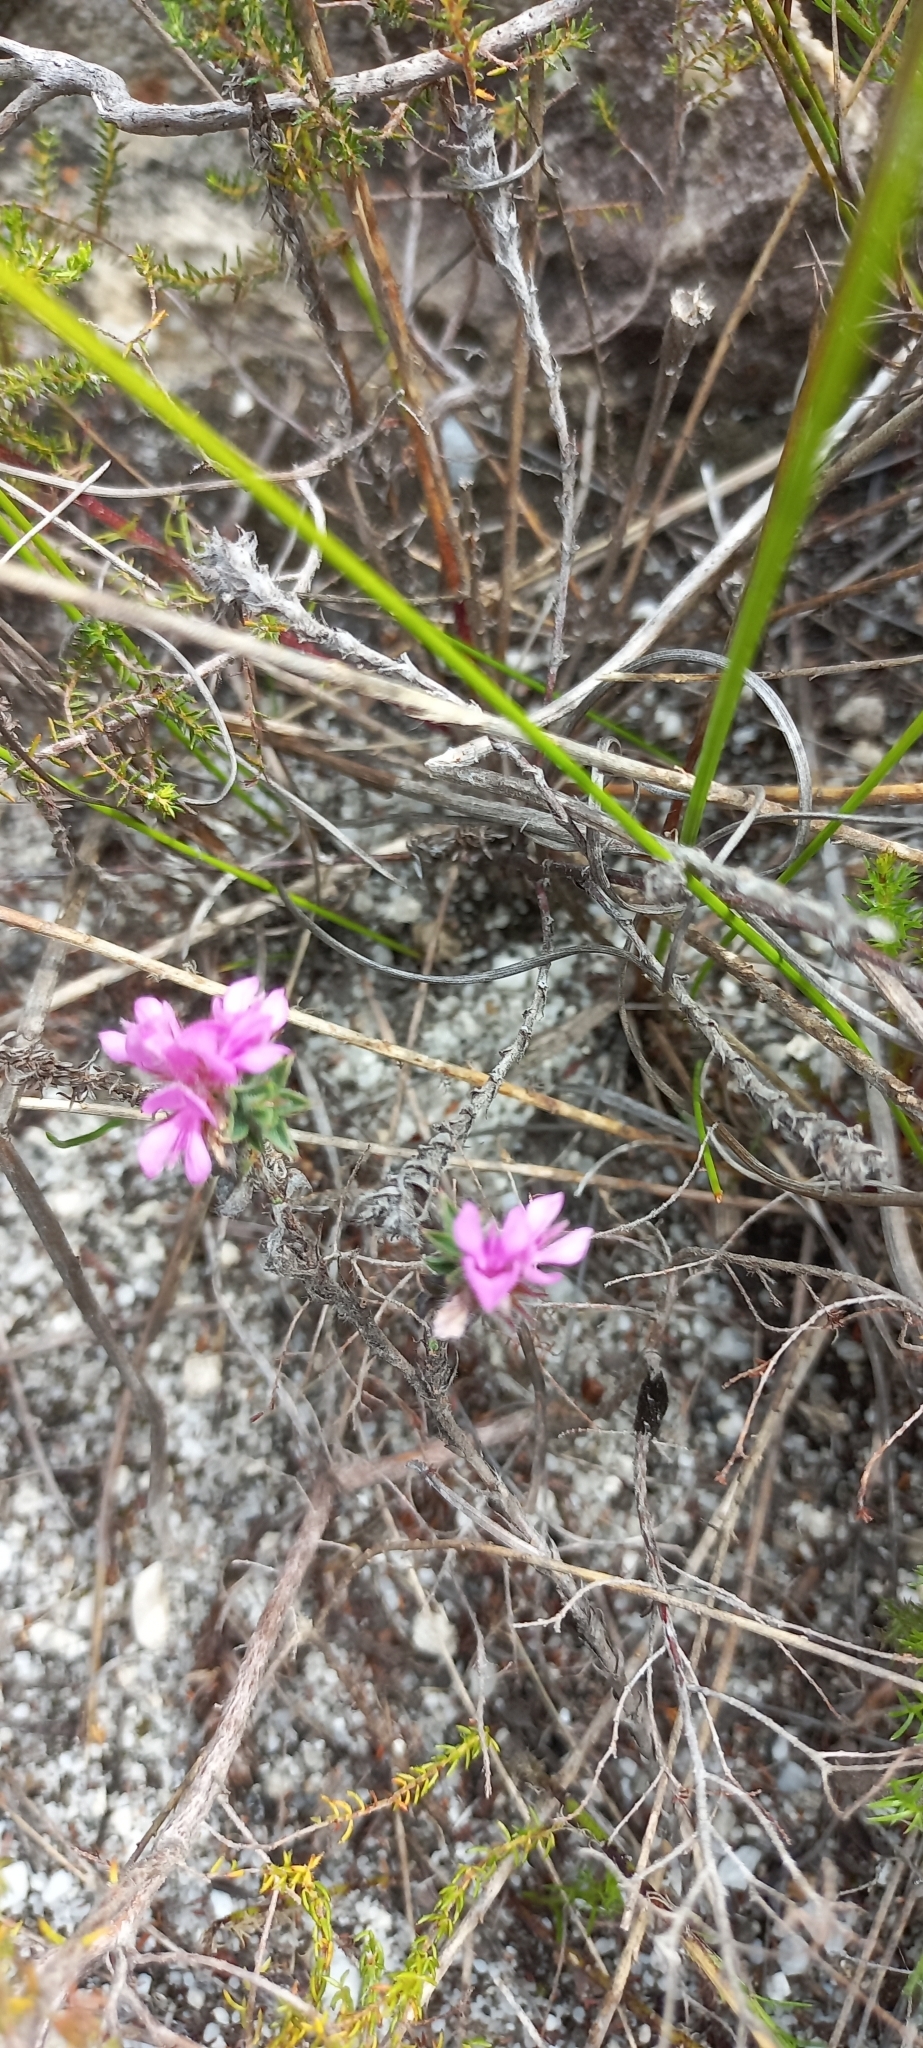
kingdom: Plantae
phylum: Tracheophyta
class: Magnoliopsida
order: Fabales
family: Fabaceae
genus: Indigofera
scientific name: Indigofera glomerata
